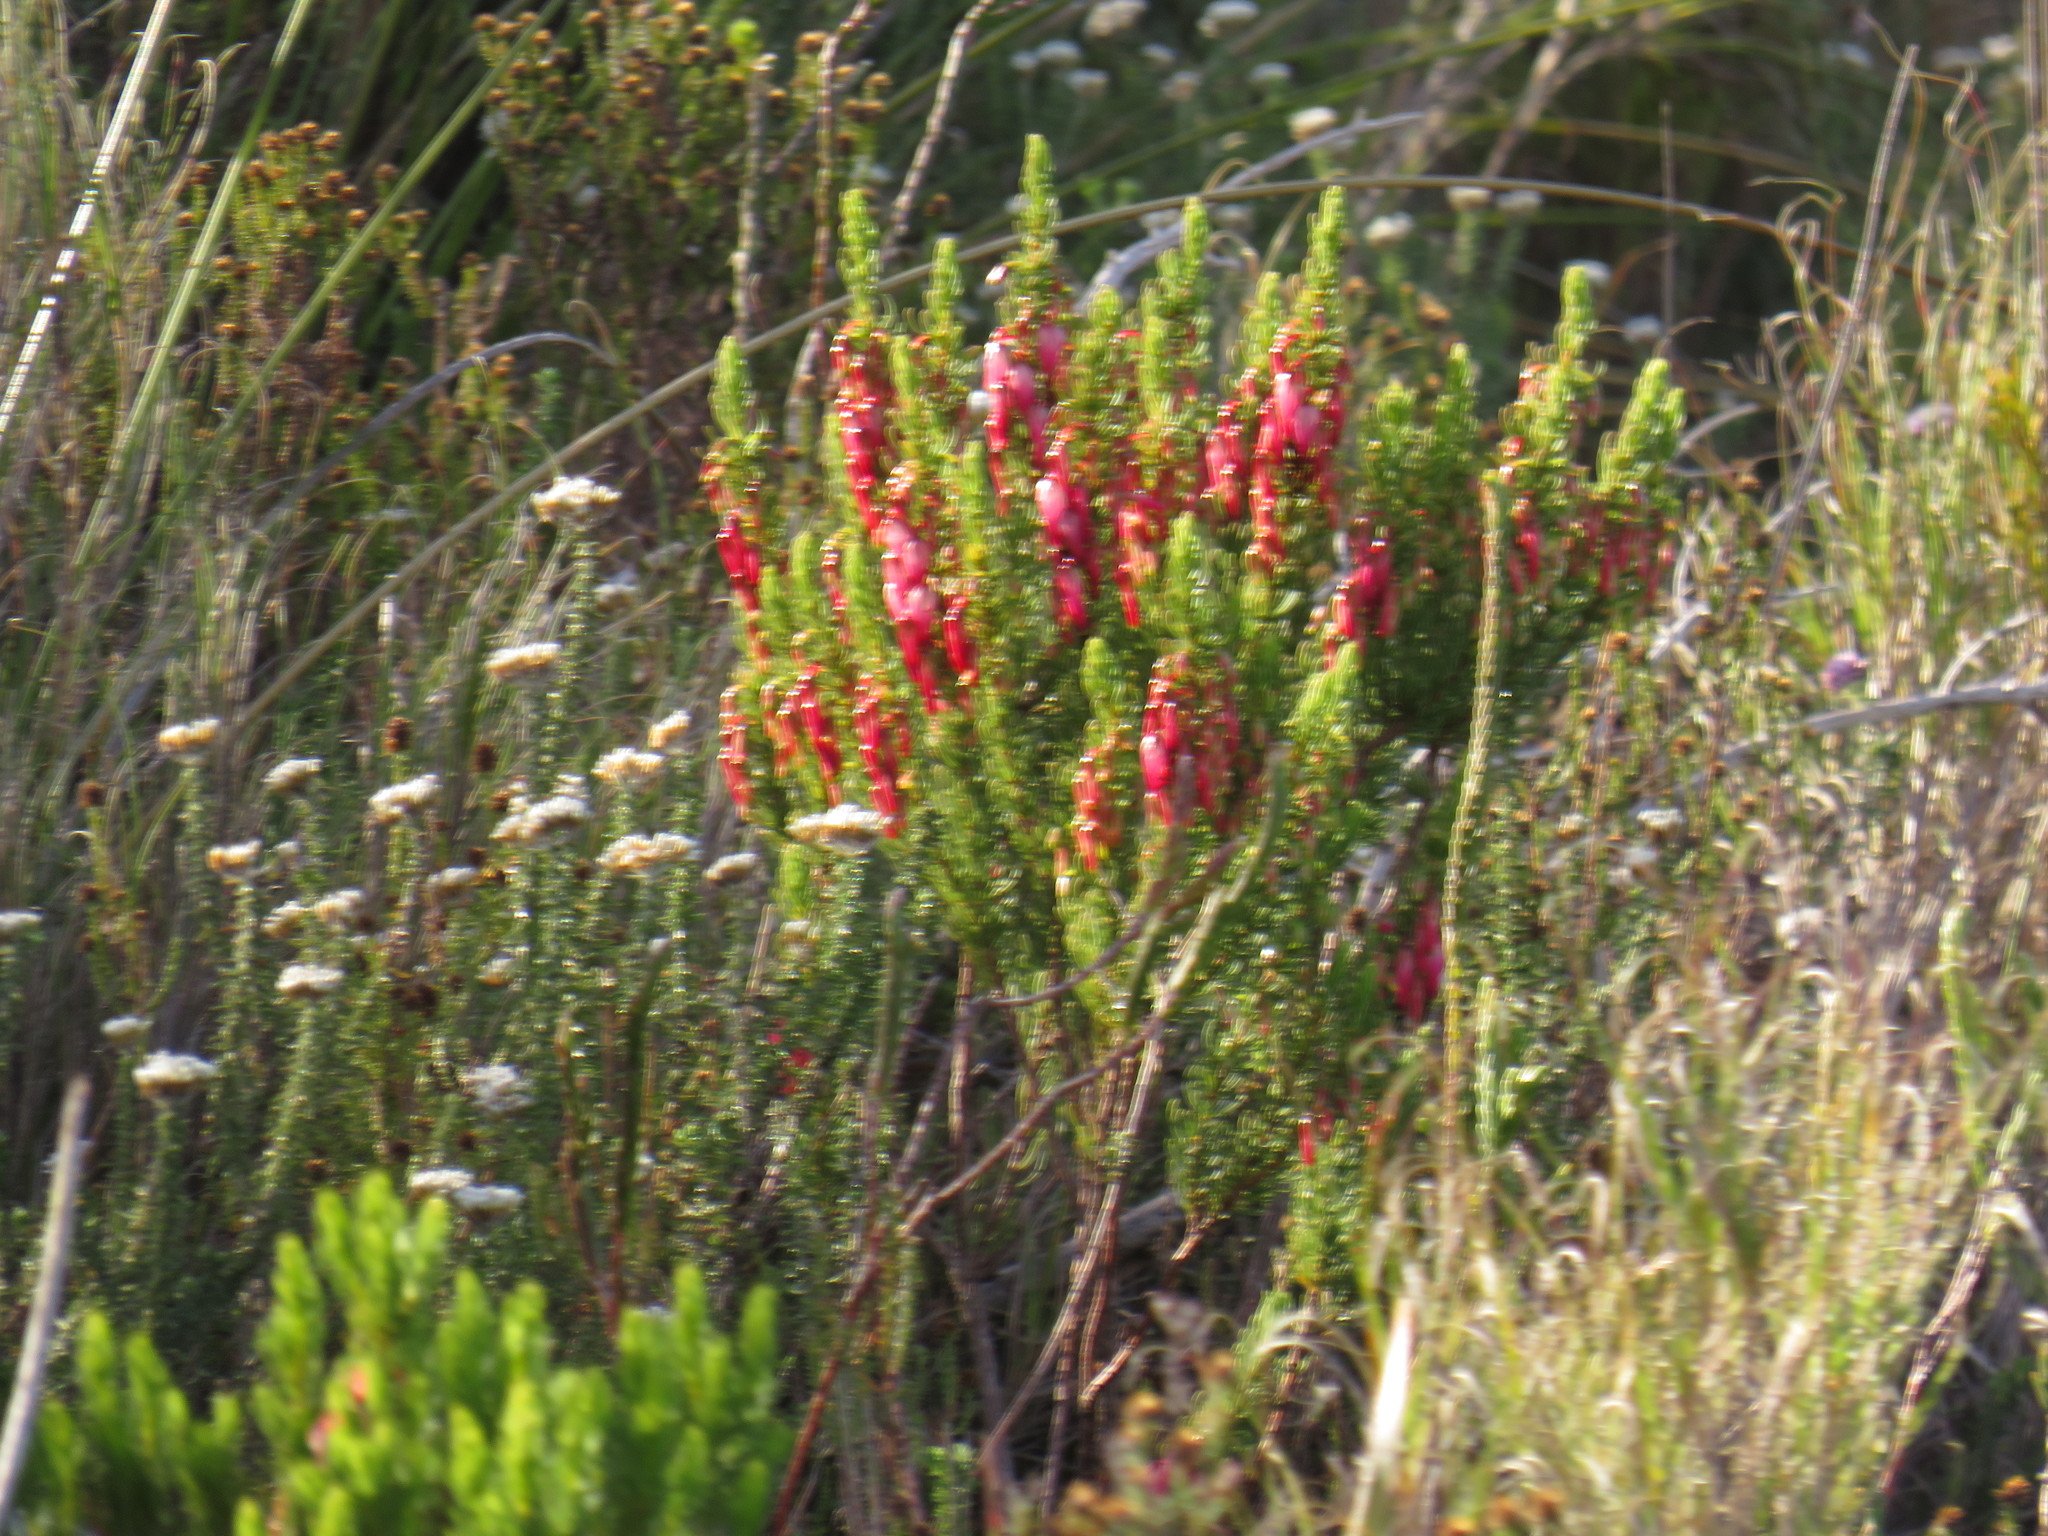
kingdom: Plantae
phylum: Tracheophyta
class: Magnoliopsida
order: Ericales
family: Ericaceae
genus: Erica
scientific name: Erica plukenetii
